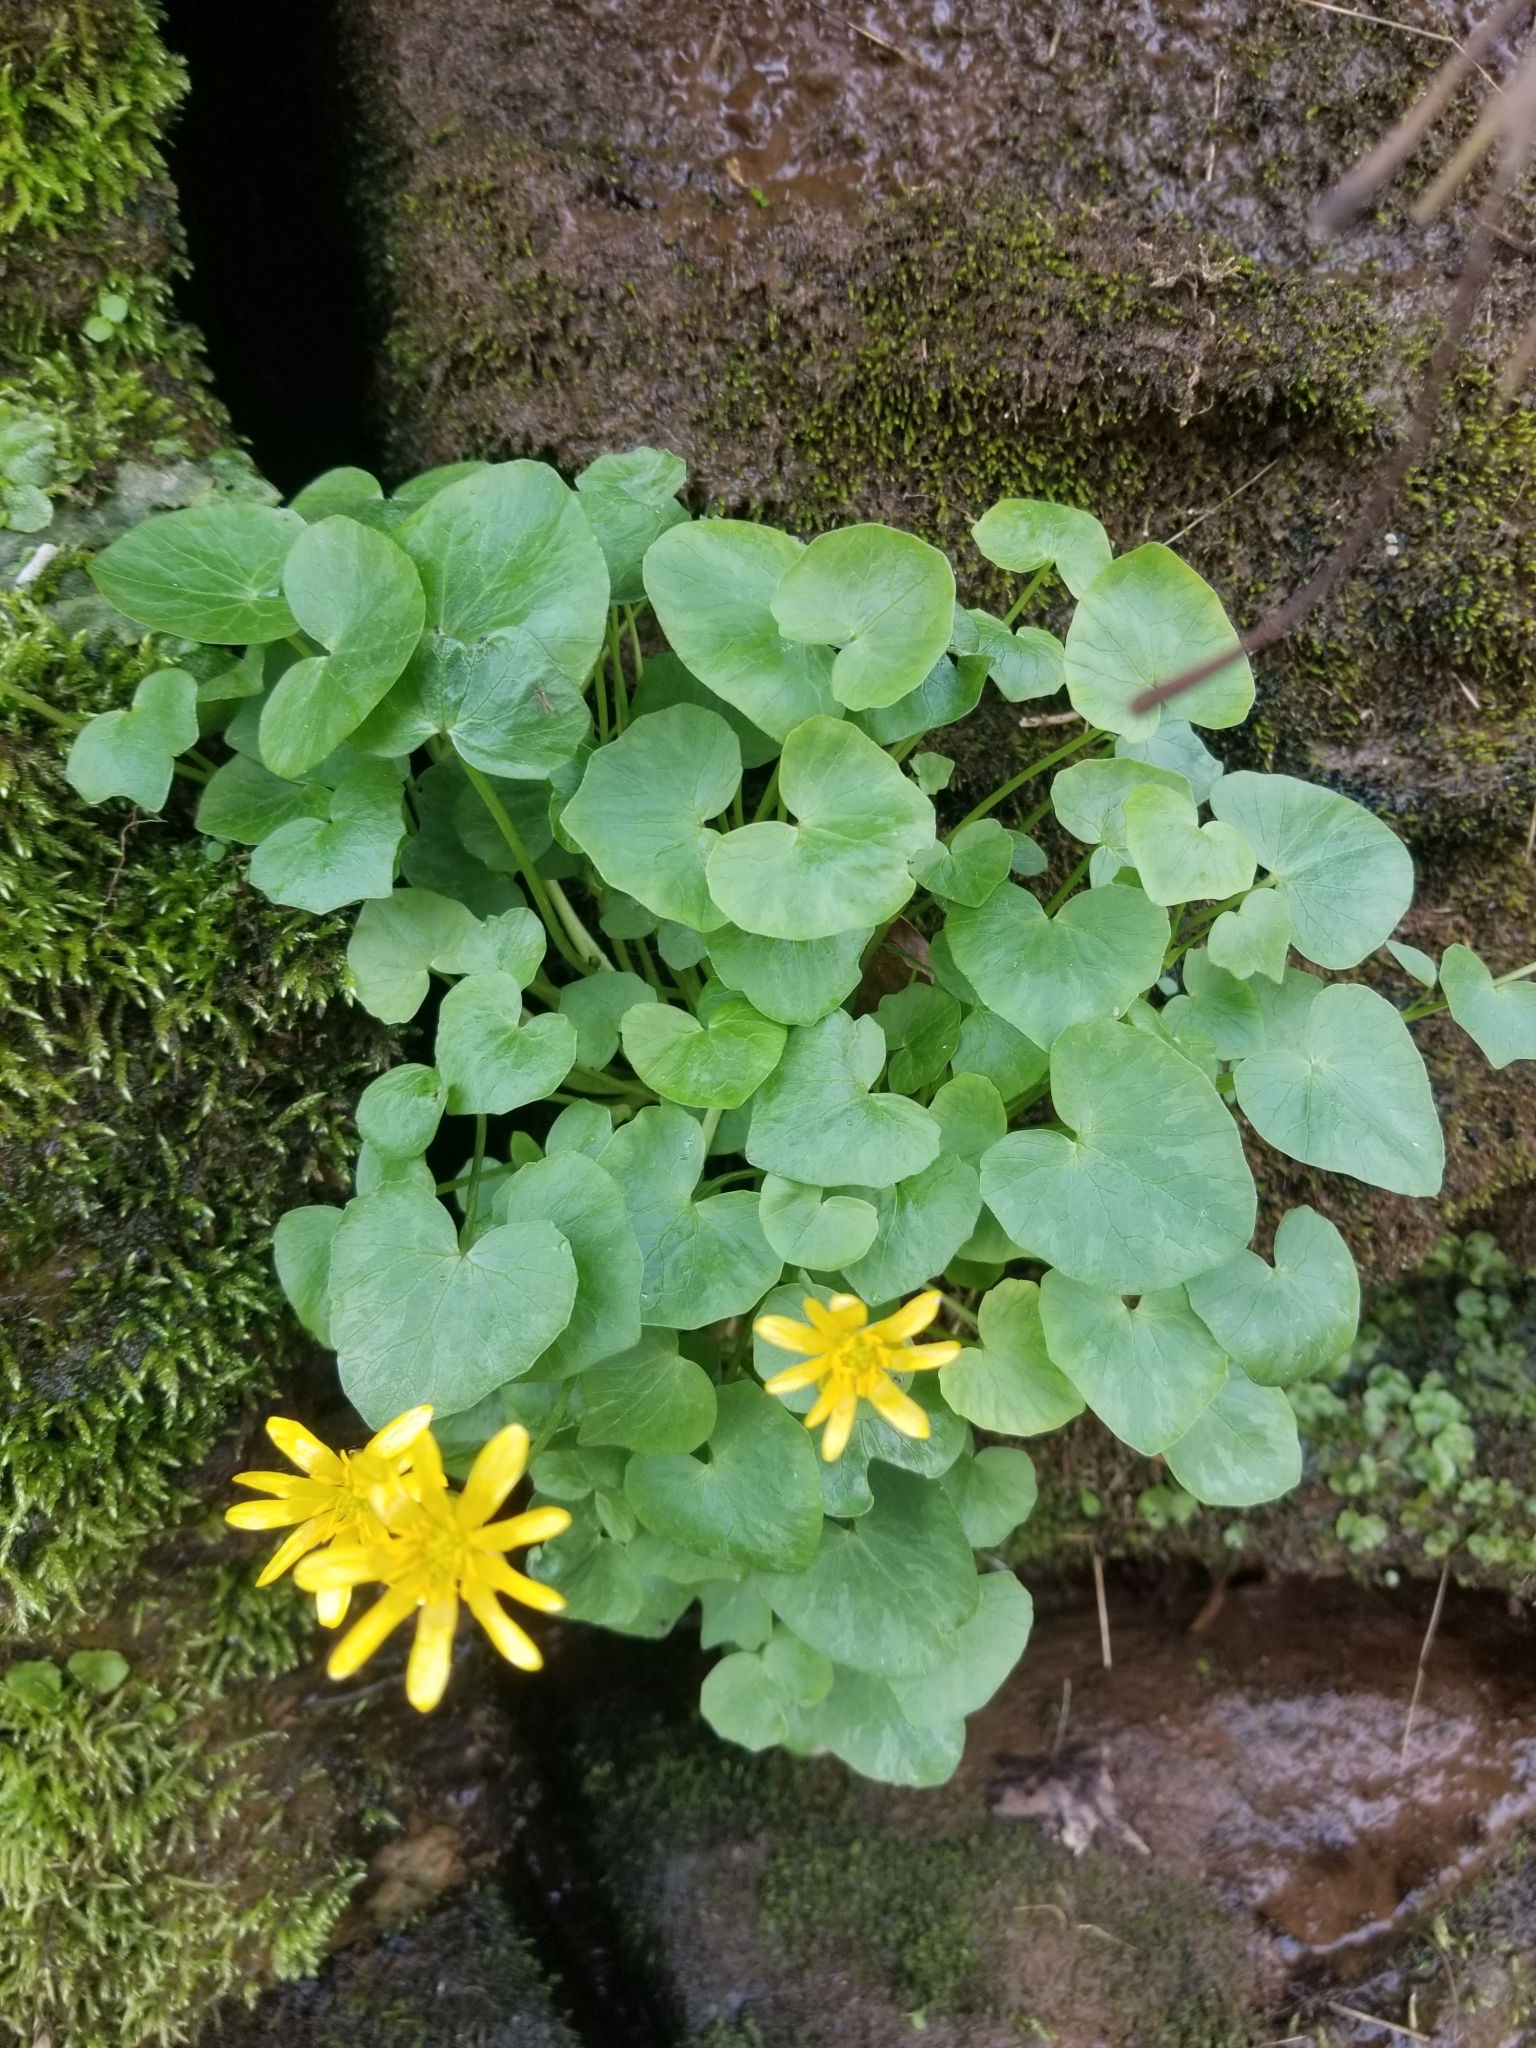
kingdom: Plantae
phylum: Tracheophyta
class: Magnoliopsida
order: Ranunculales
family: Ranunculaceae
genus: Ficaria
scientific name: Ficaria verna
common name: Lesser celandine
